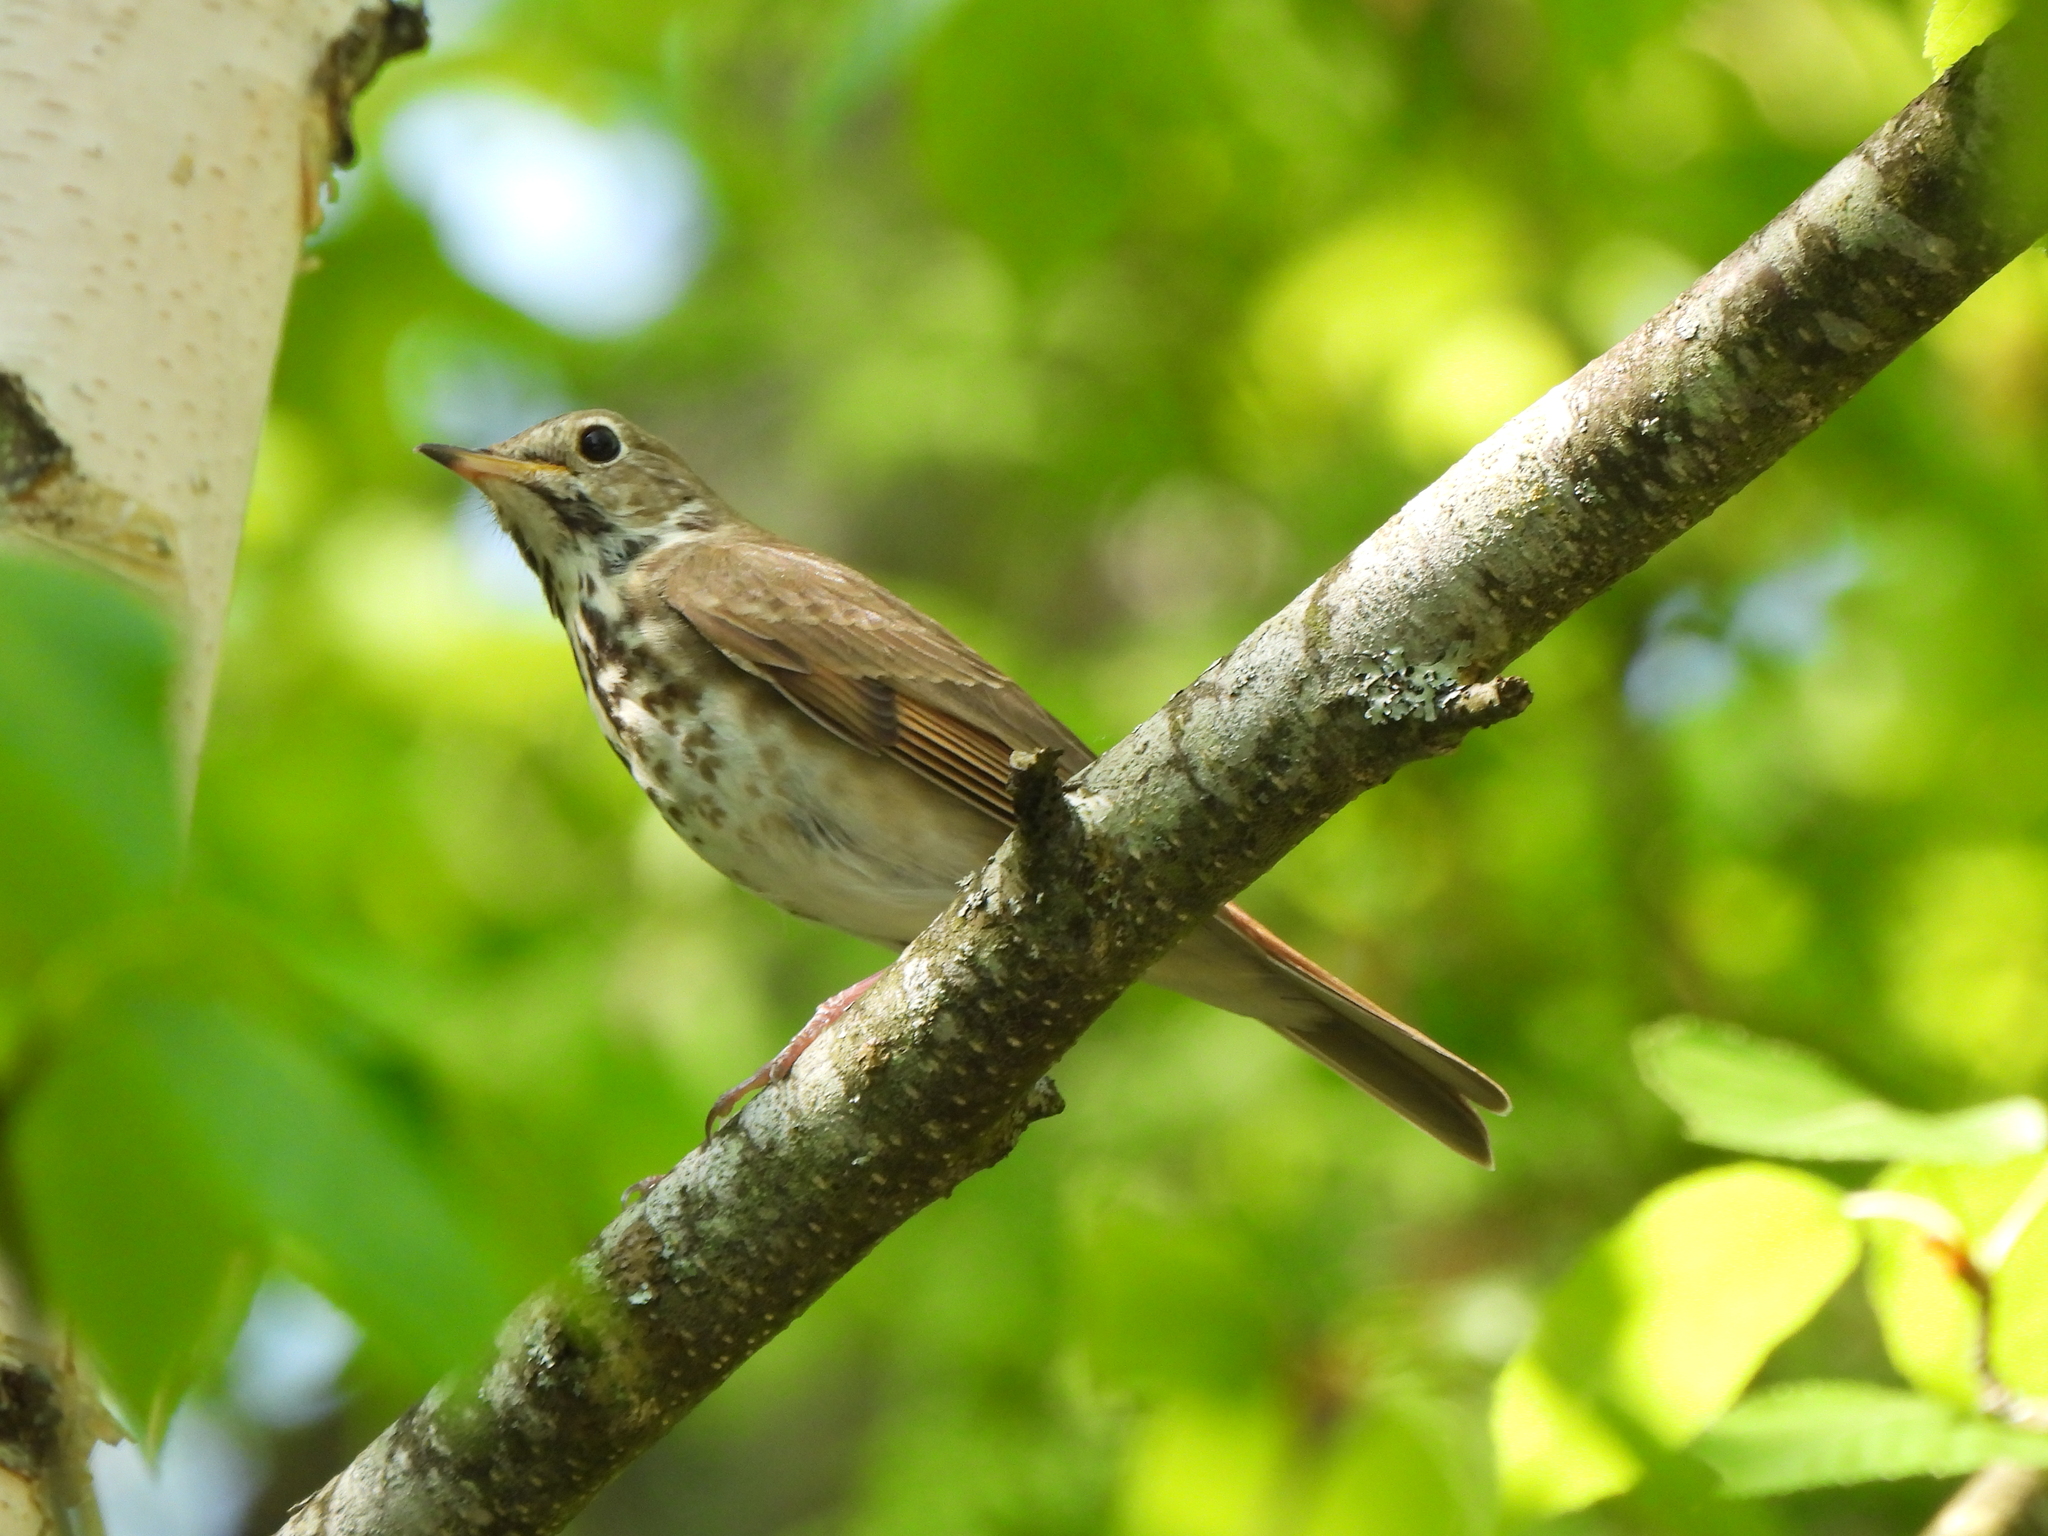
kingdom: Animalia
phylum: Chordata
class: Aves
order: Passeriformes
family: Turdidae
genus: Catharus
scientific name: Catharus guttatus
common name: Hermit thrush
